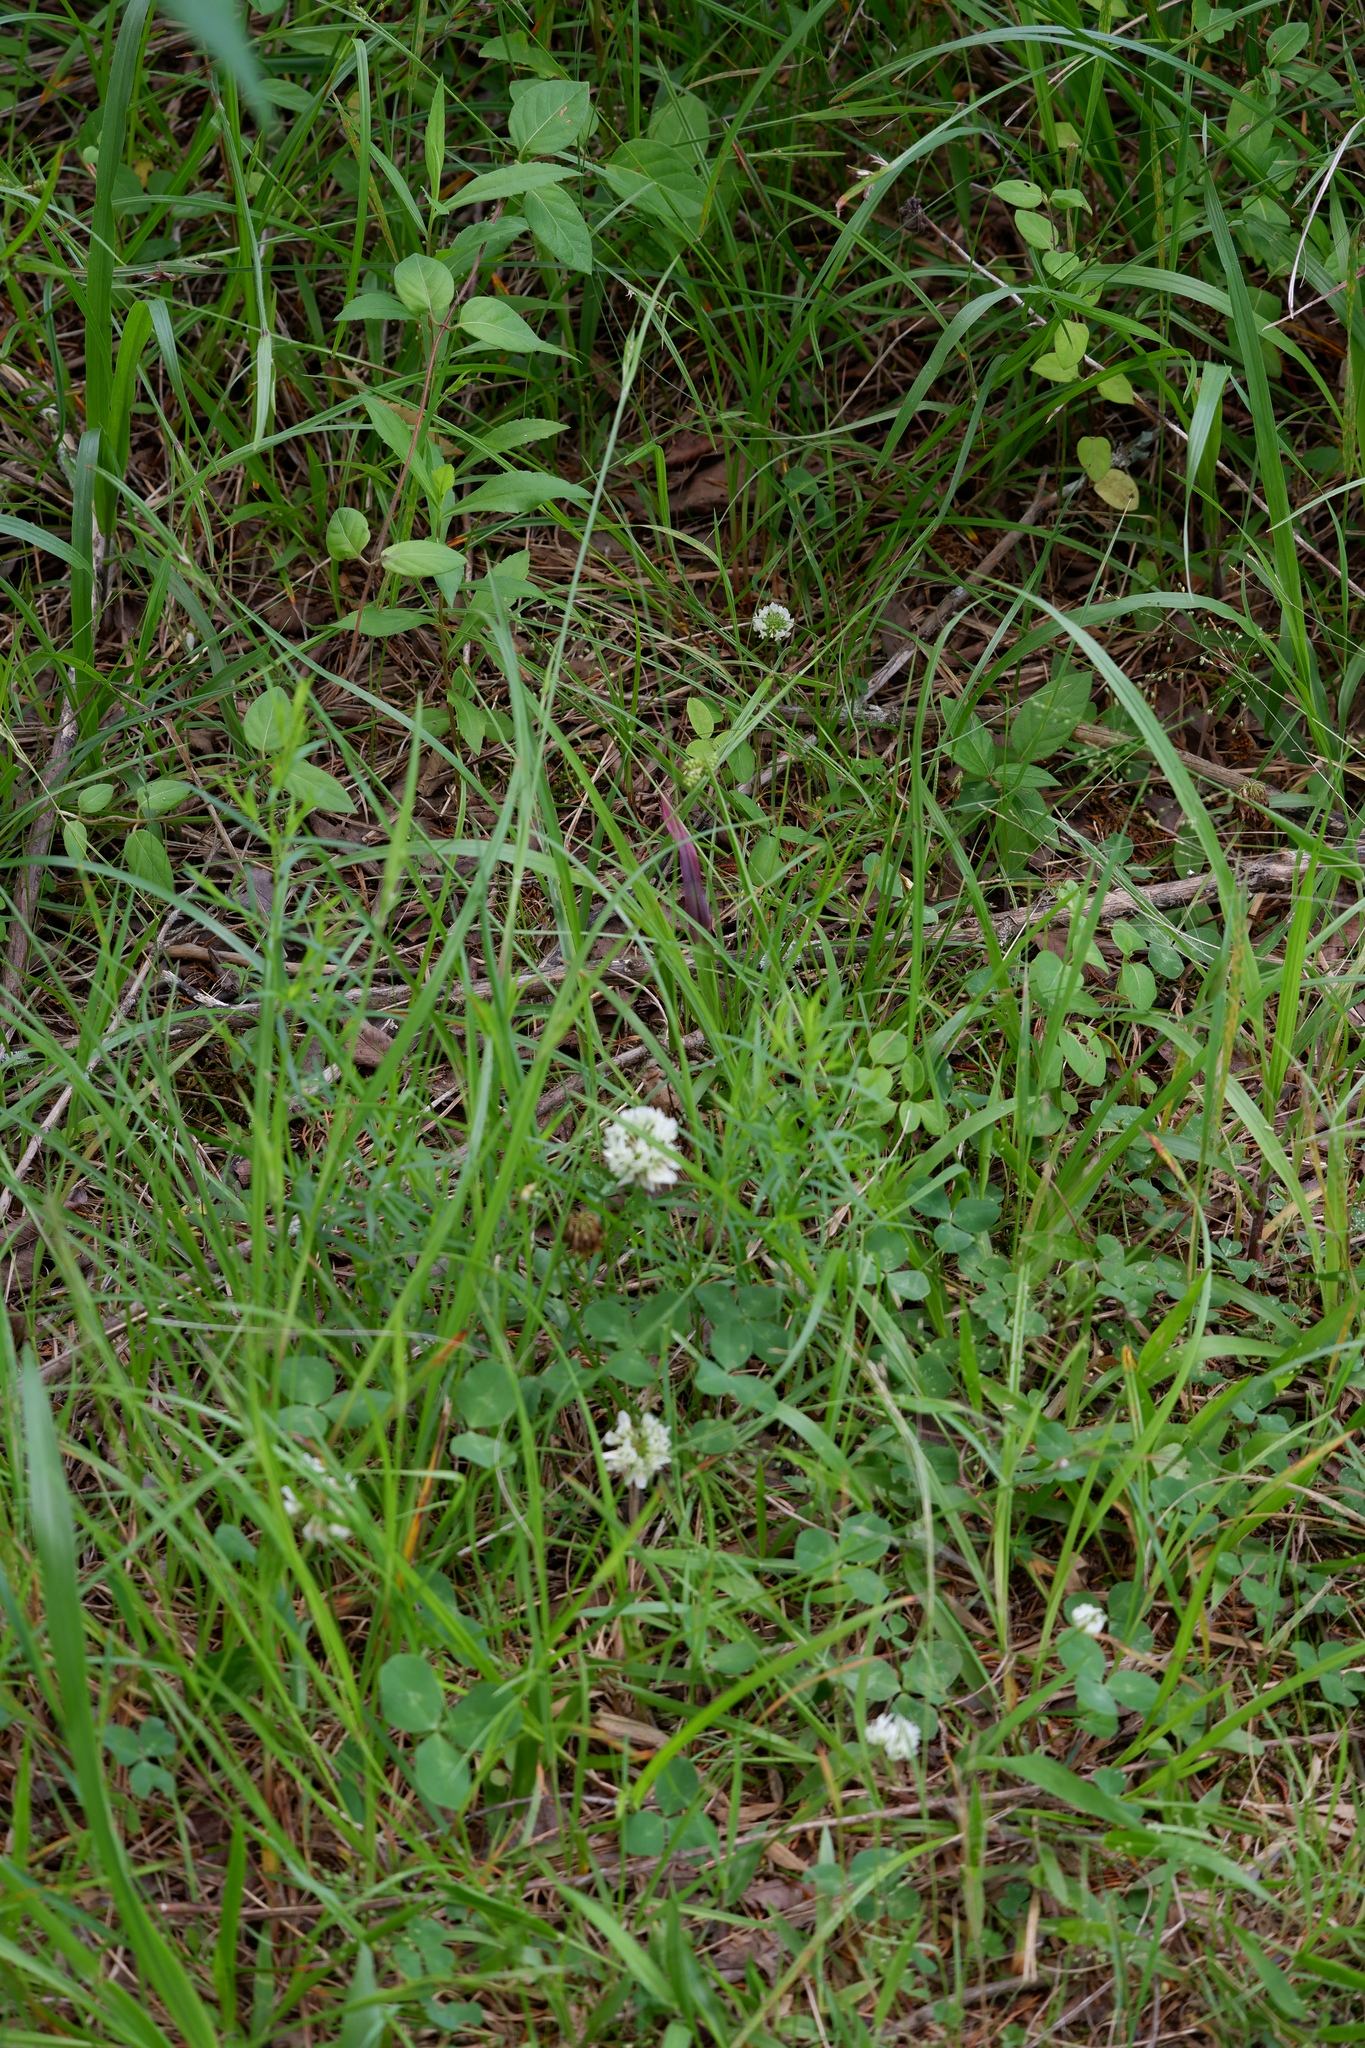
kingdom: Plantae
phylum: Tracheophyta
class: Magnoliopsida
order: Fabales
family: Fabaceae
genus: Trifolium
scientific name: Trifolium repens
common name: White clover
